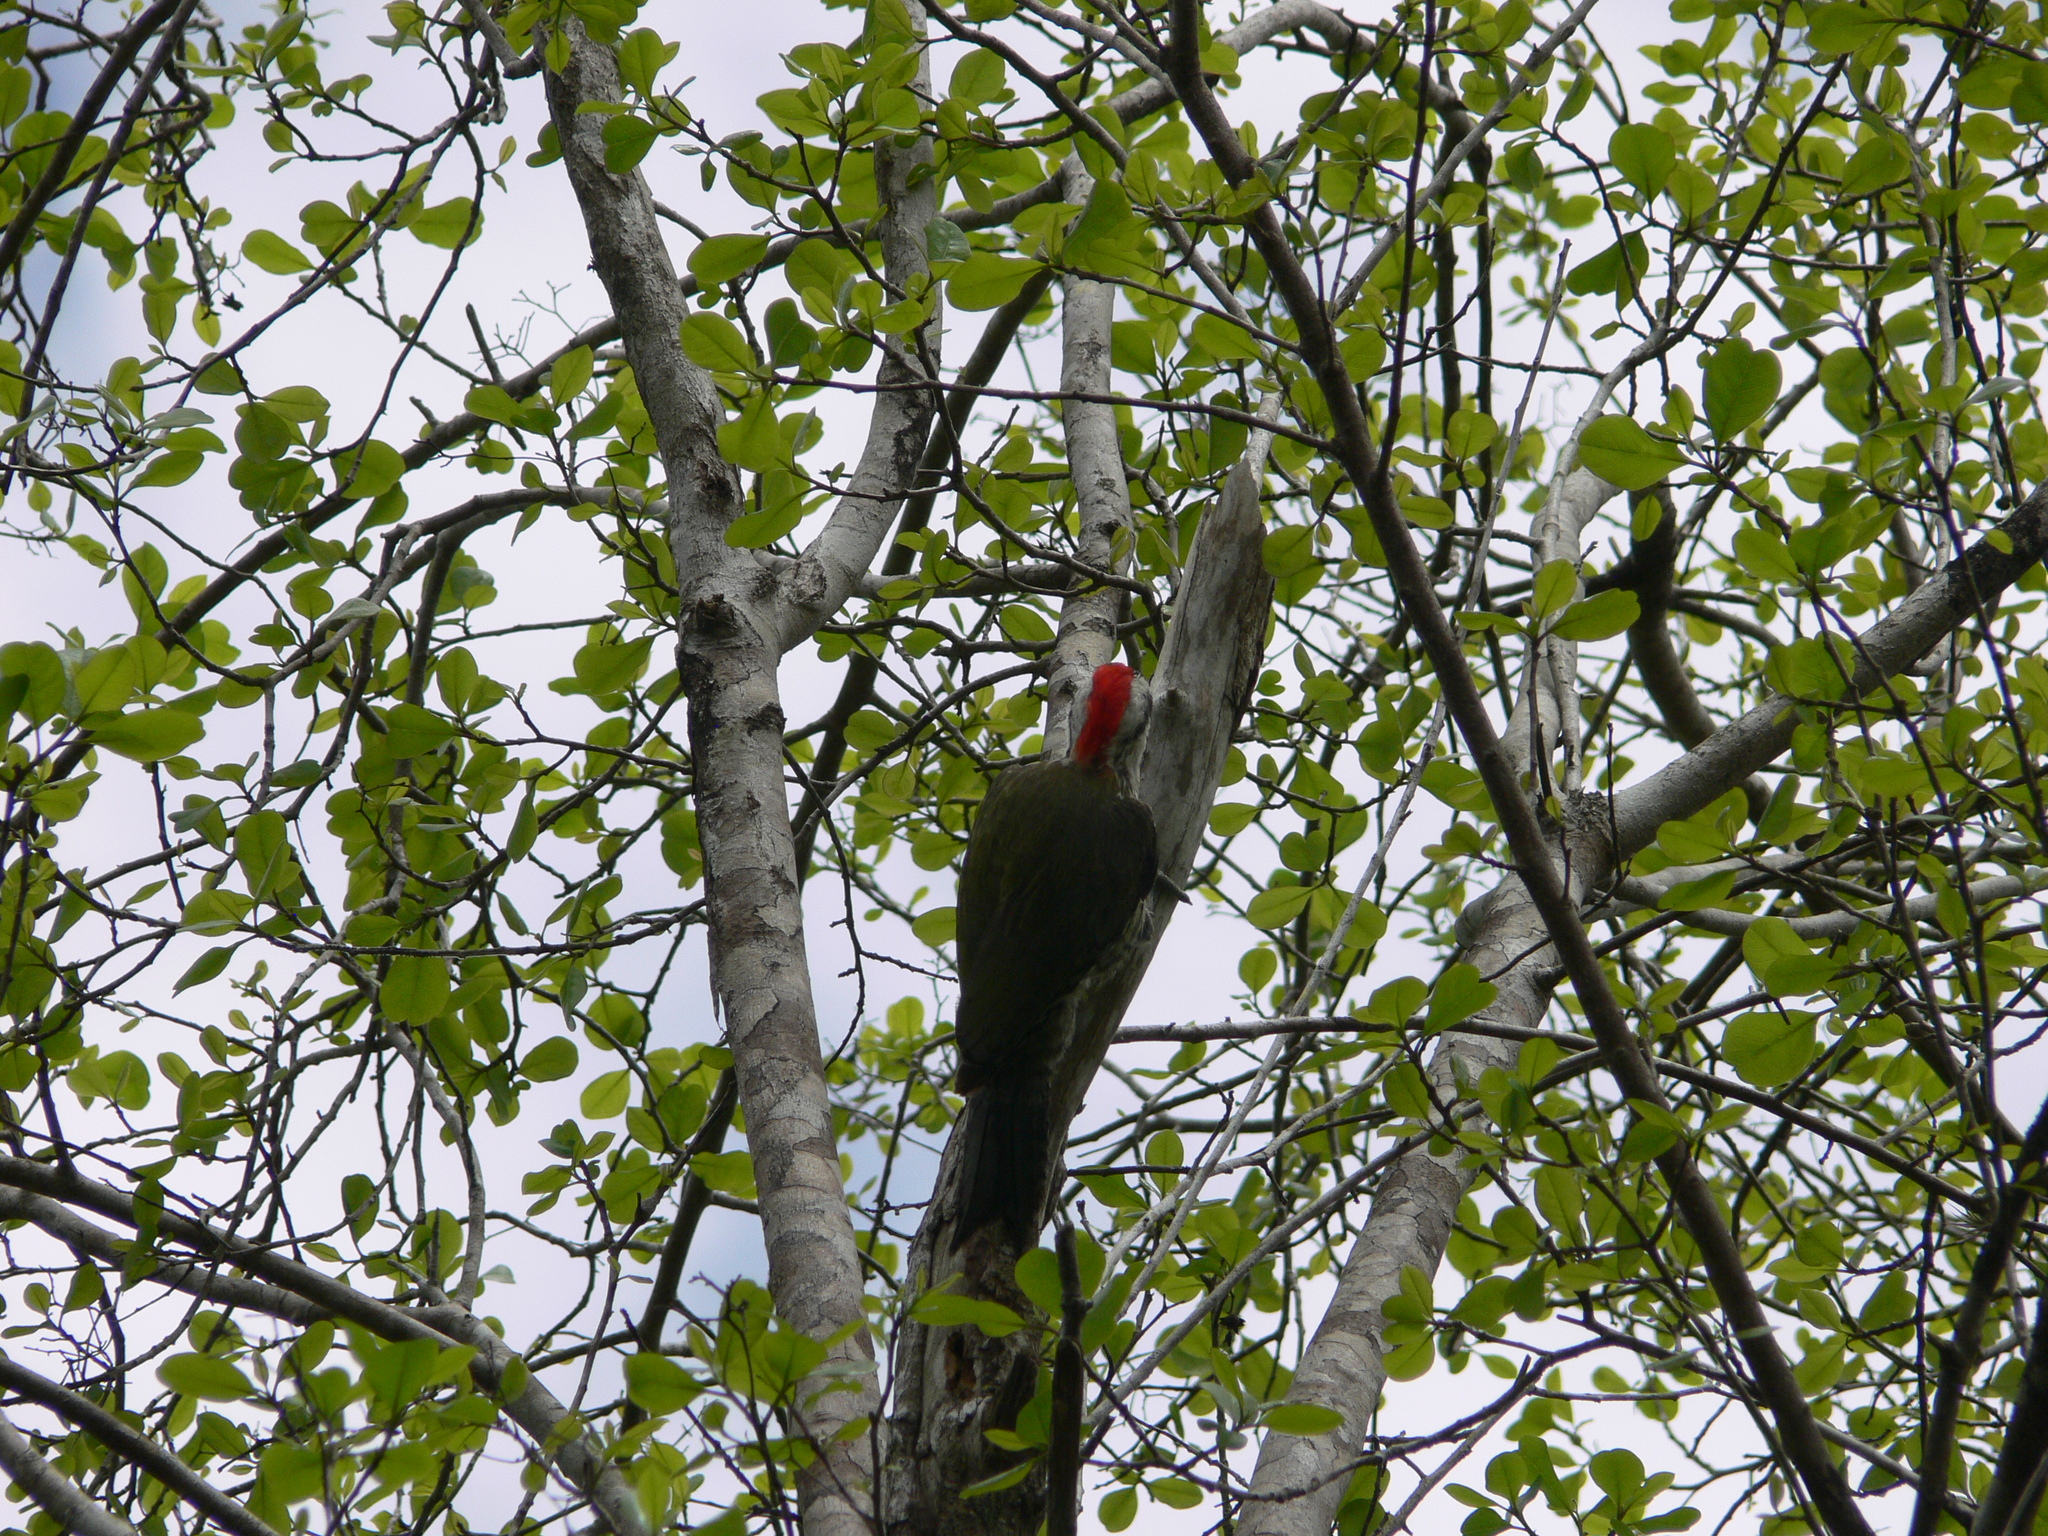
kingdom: Animalia
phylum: Chordata
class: Aves
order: Piciformes
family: Picidae
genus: Xiphidiopicus
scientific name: Xiphidiopicus percussus
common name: Cuban green woodpecker
